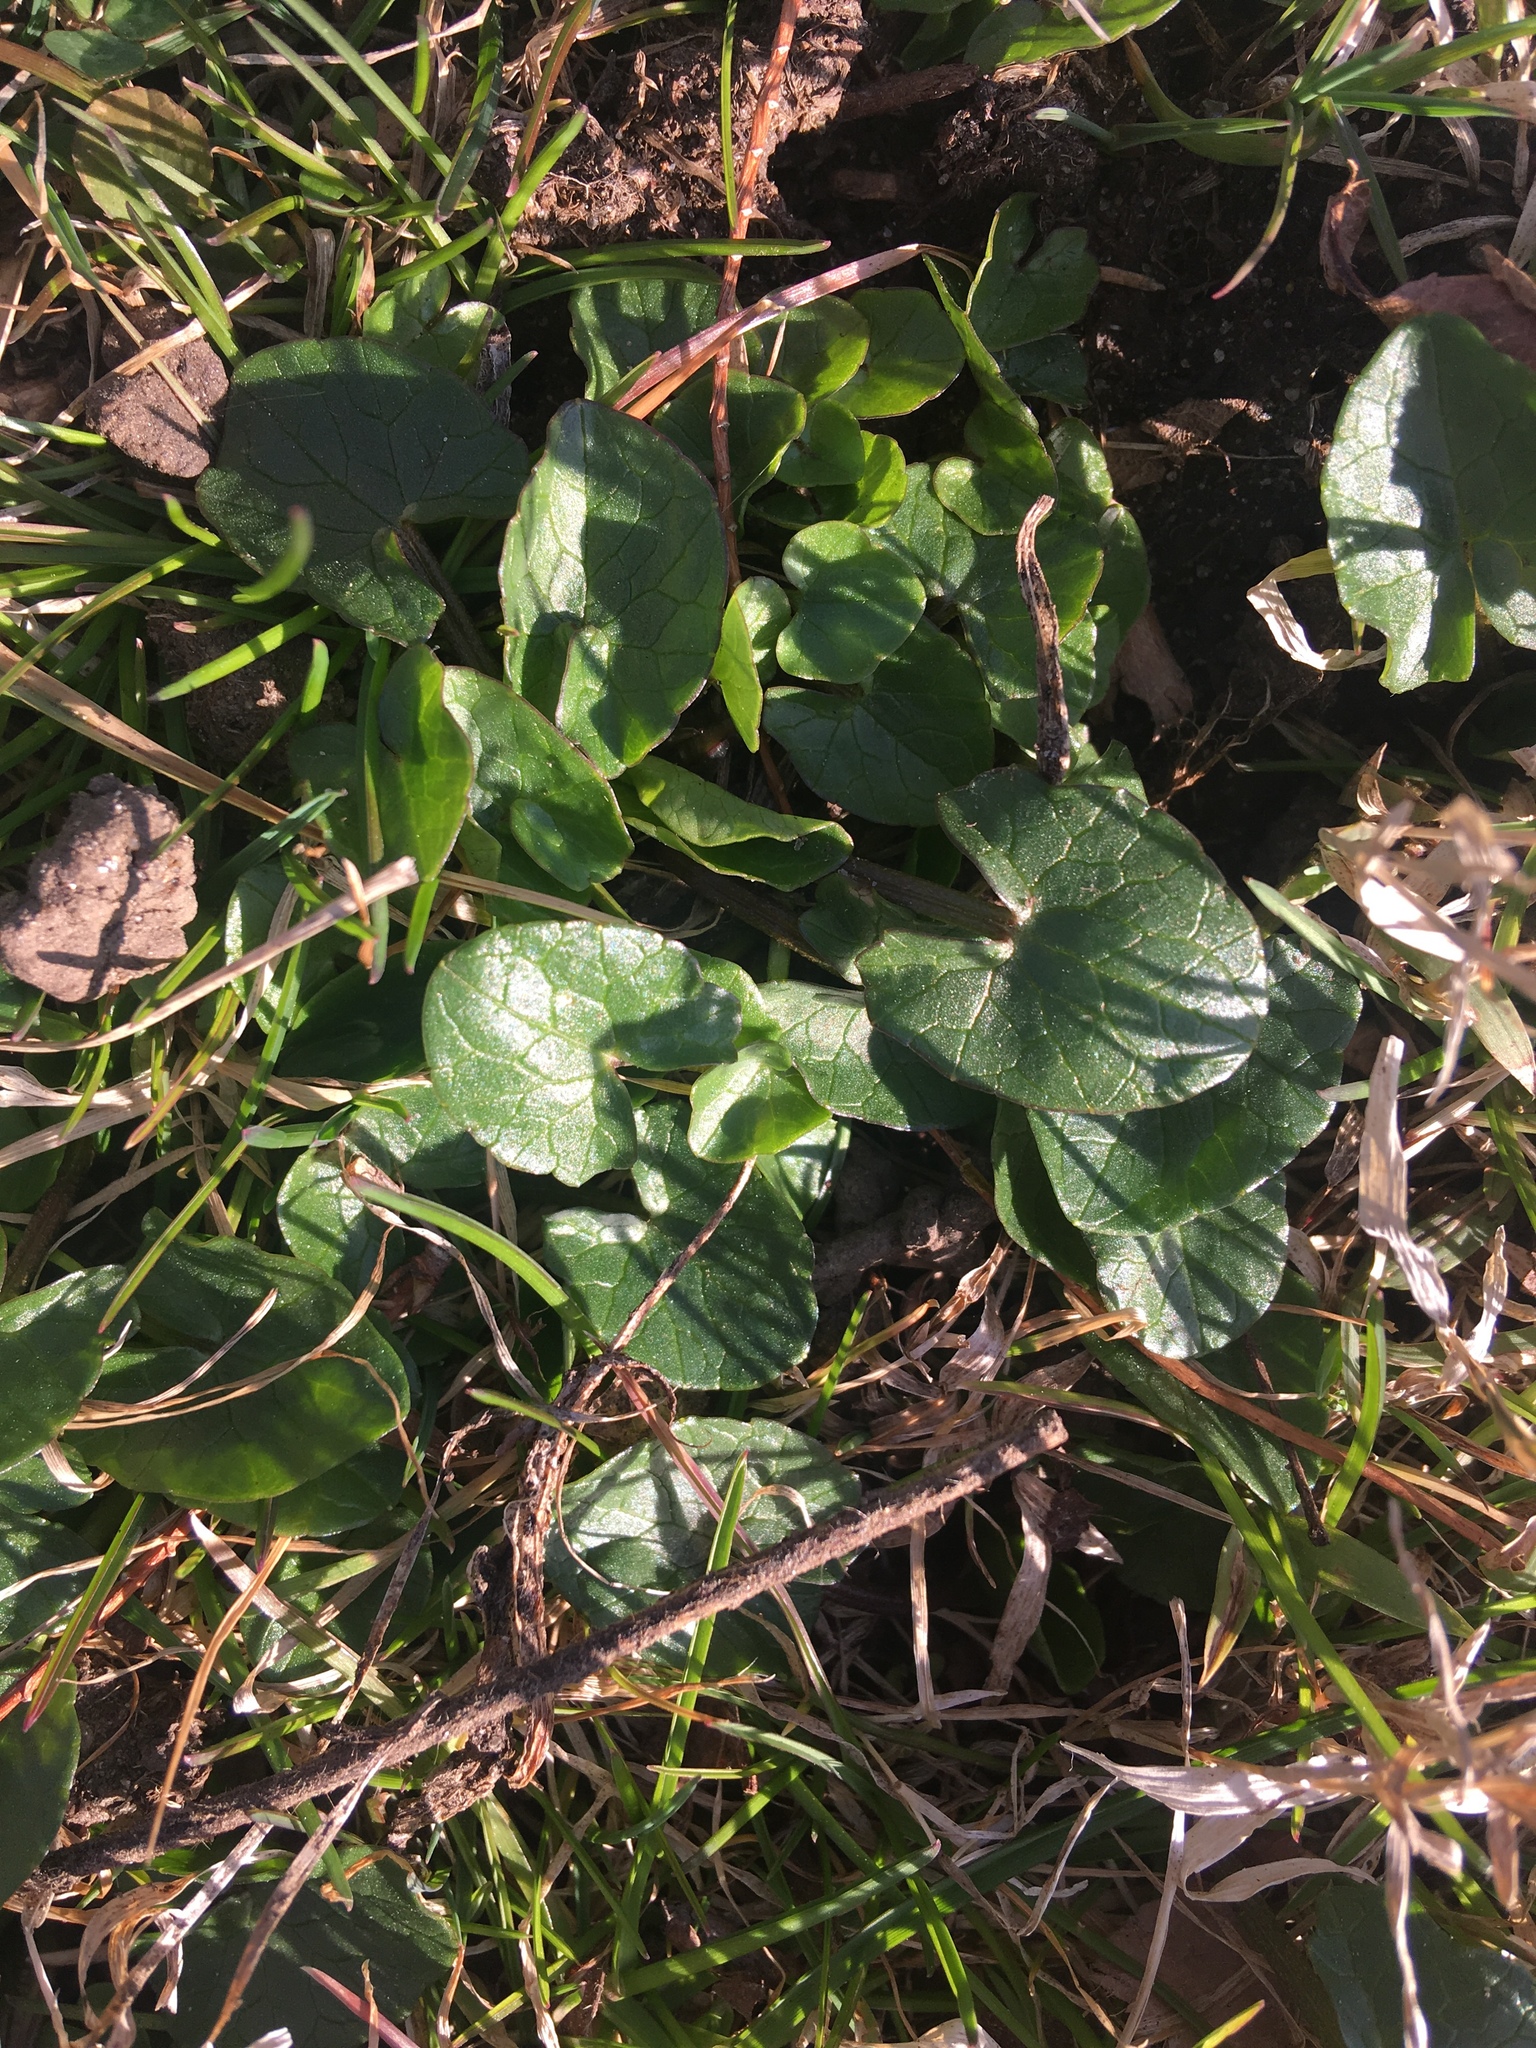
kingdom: Plantae
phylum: Tracheophyta
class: Magnoliopsida
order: Ranunculales
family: Ranunculaceae
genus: Ficaria
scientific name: Ficaria verna
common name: Lesser celandine
